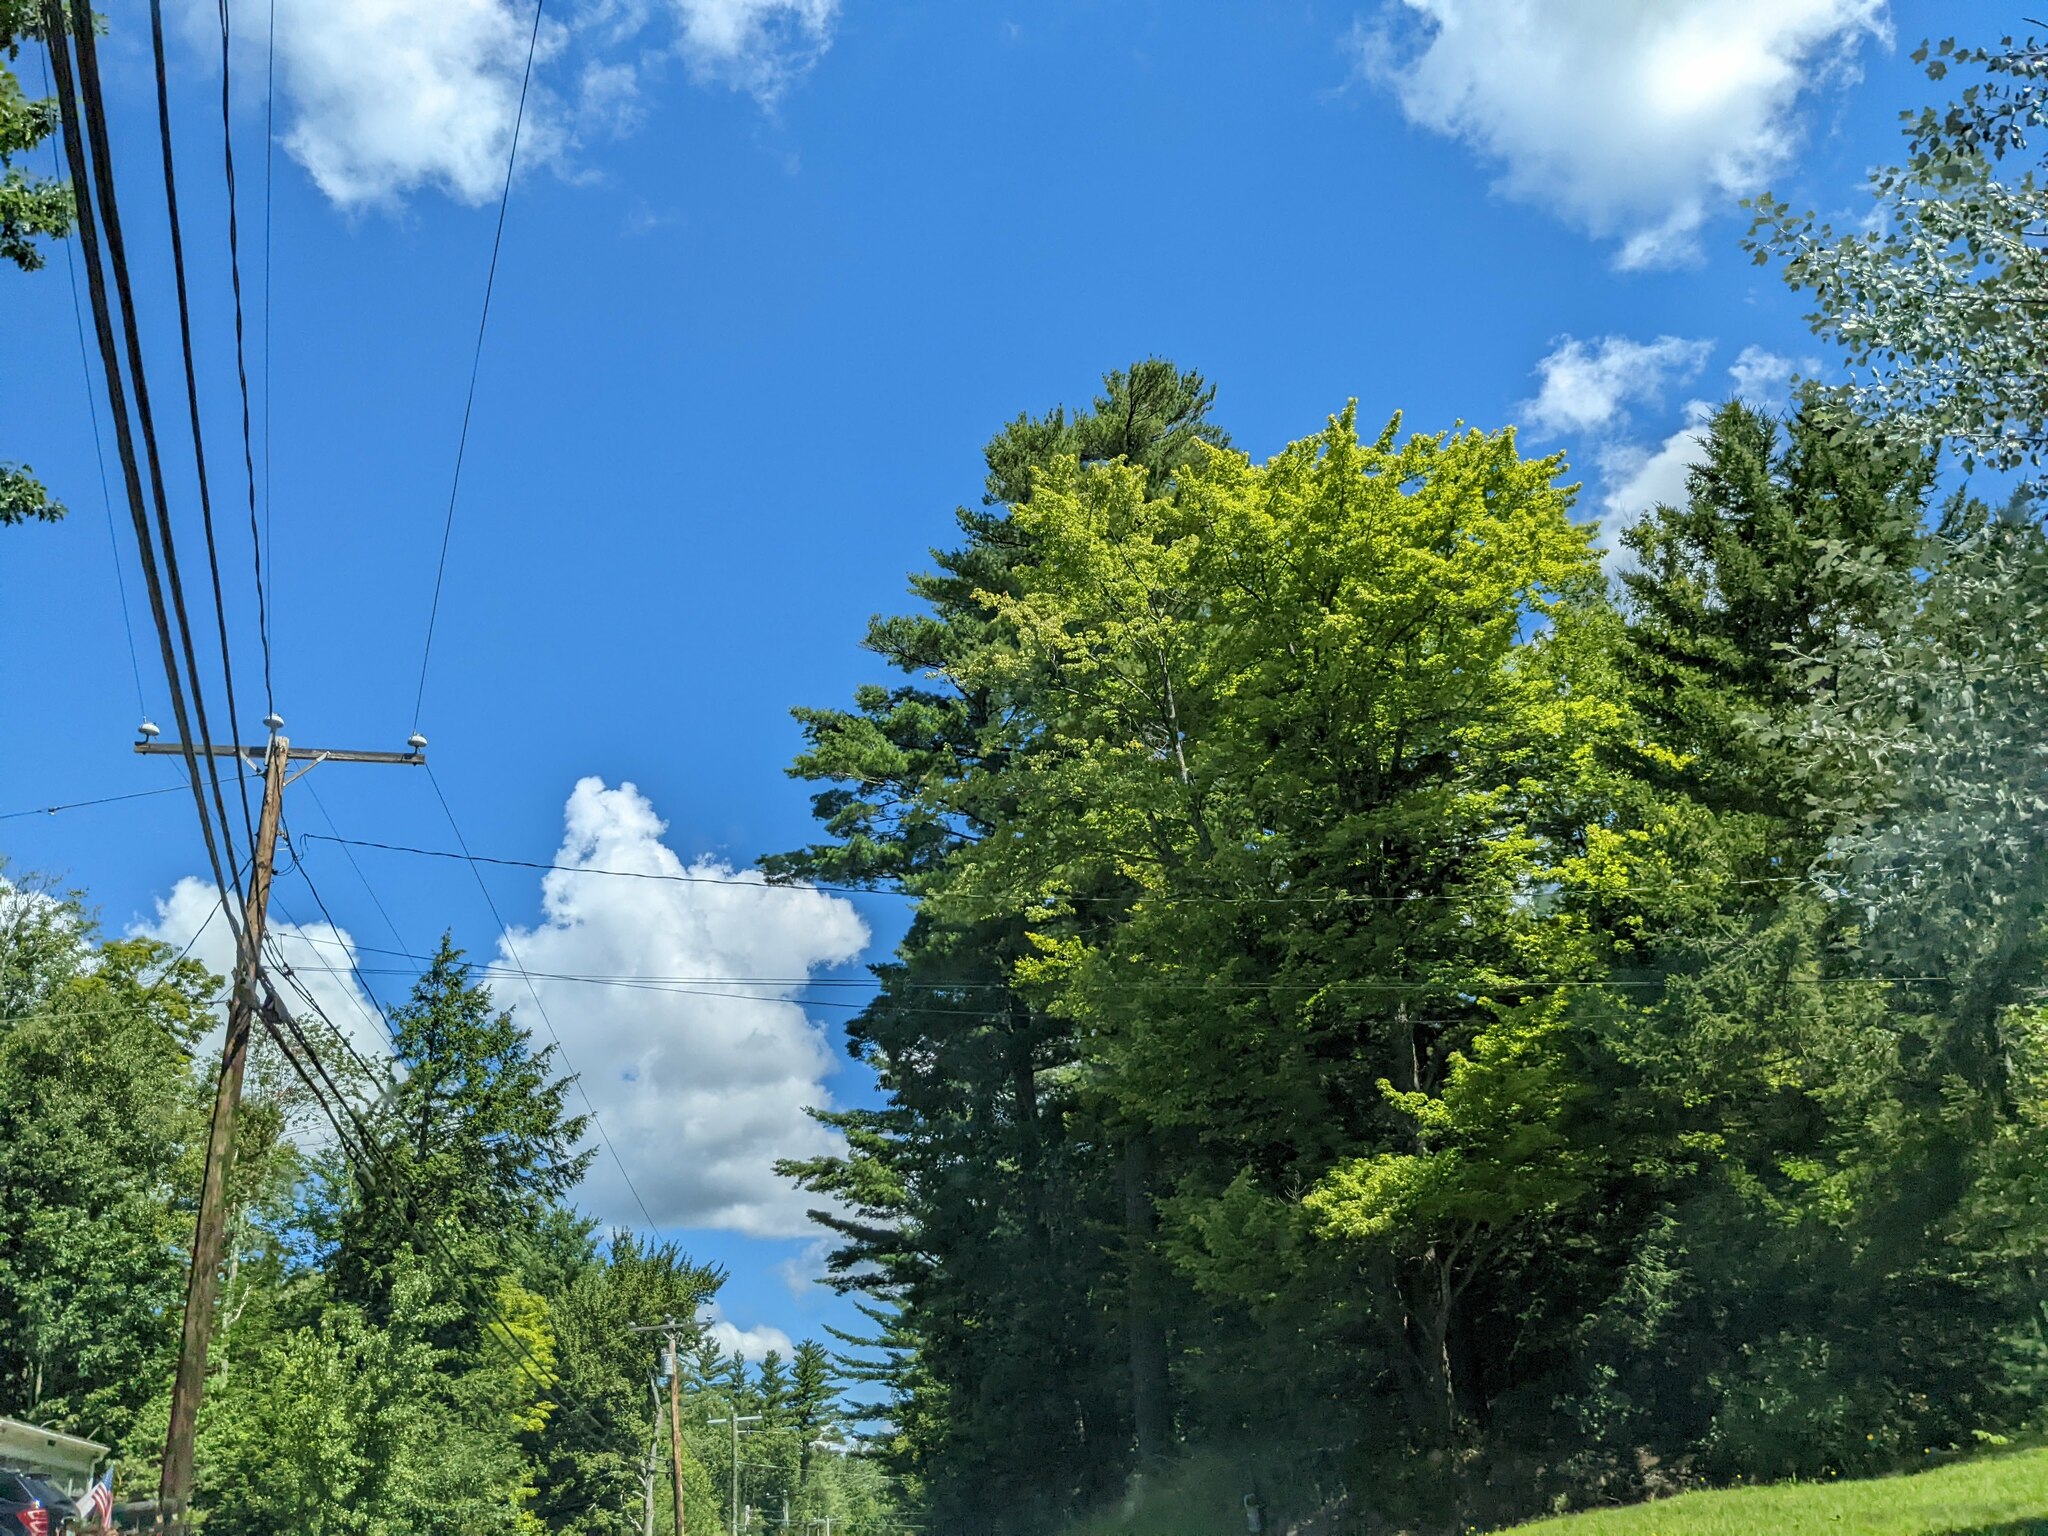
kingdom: Plantae
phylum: Tracheophyta
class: Pinopsida
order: Pinales
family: Pinaceae
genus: Pinus
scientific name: Pinus strobus
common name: Weymouth pine
